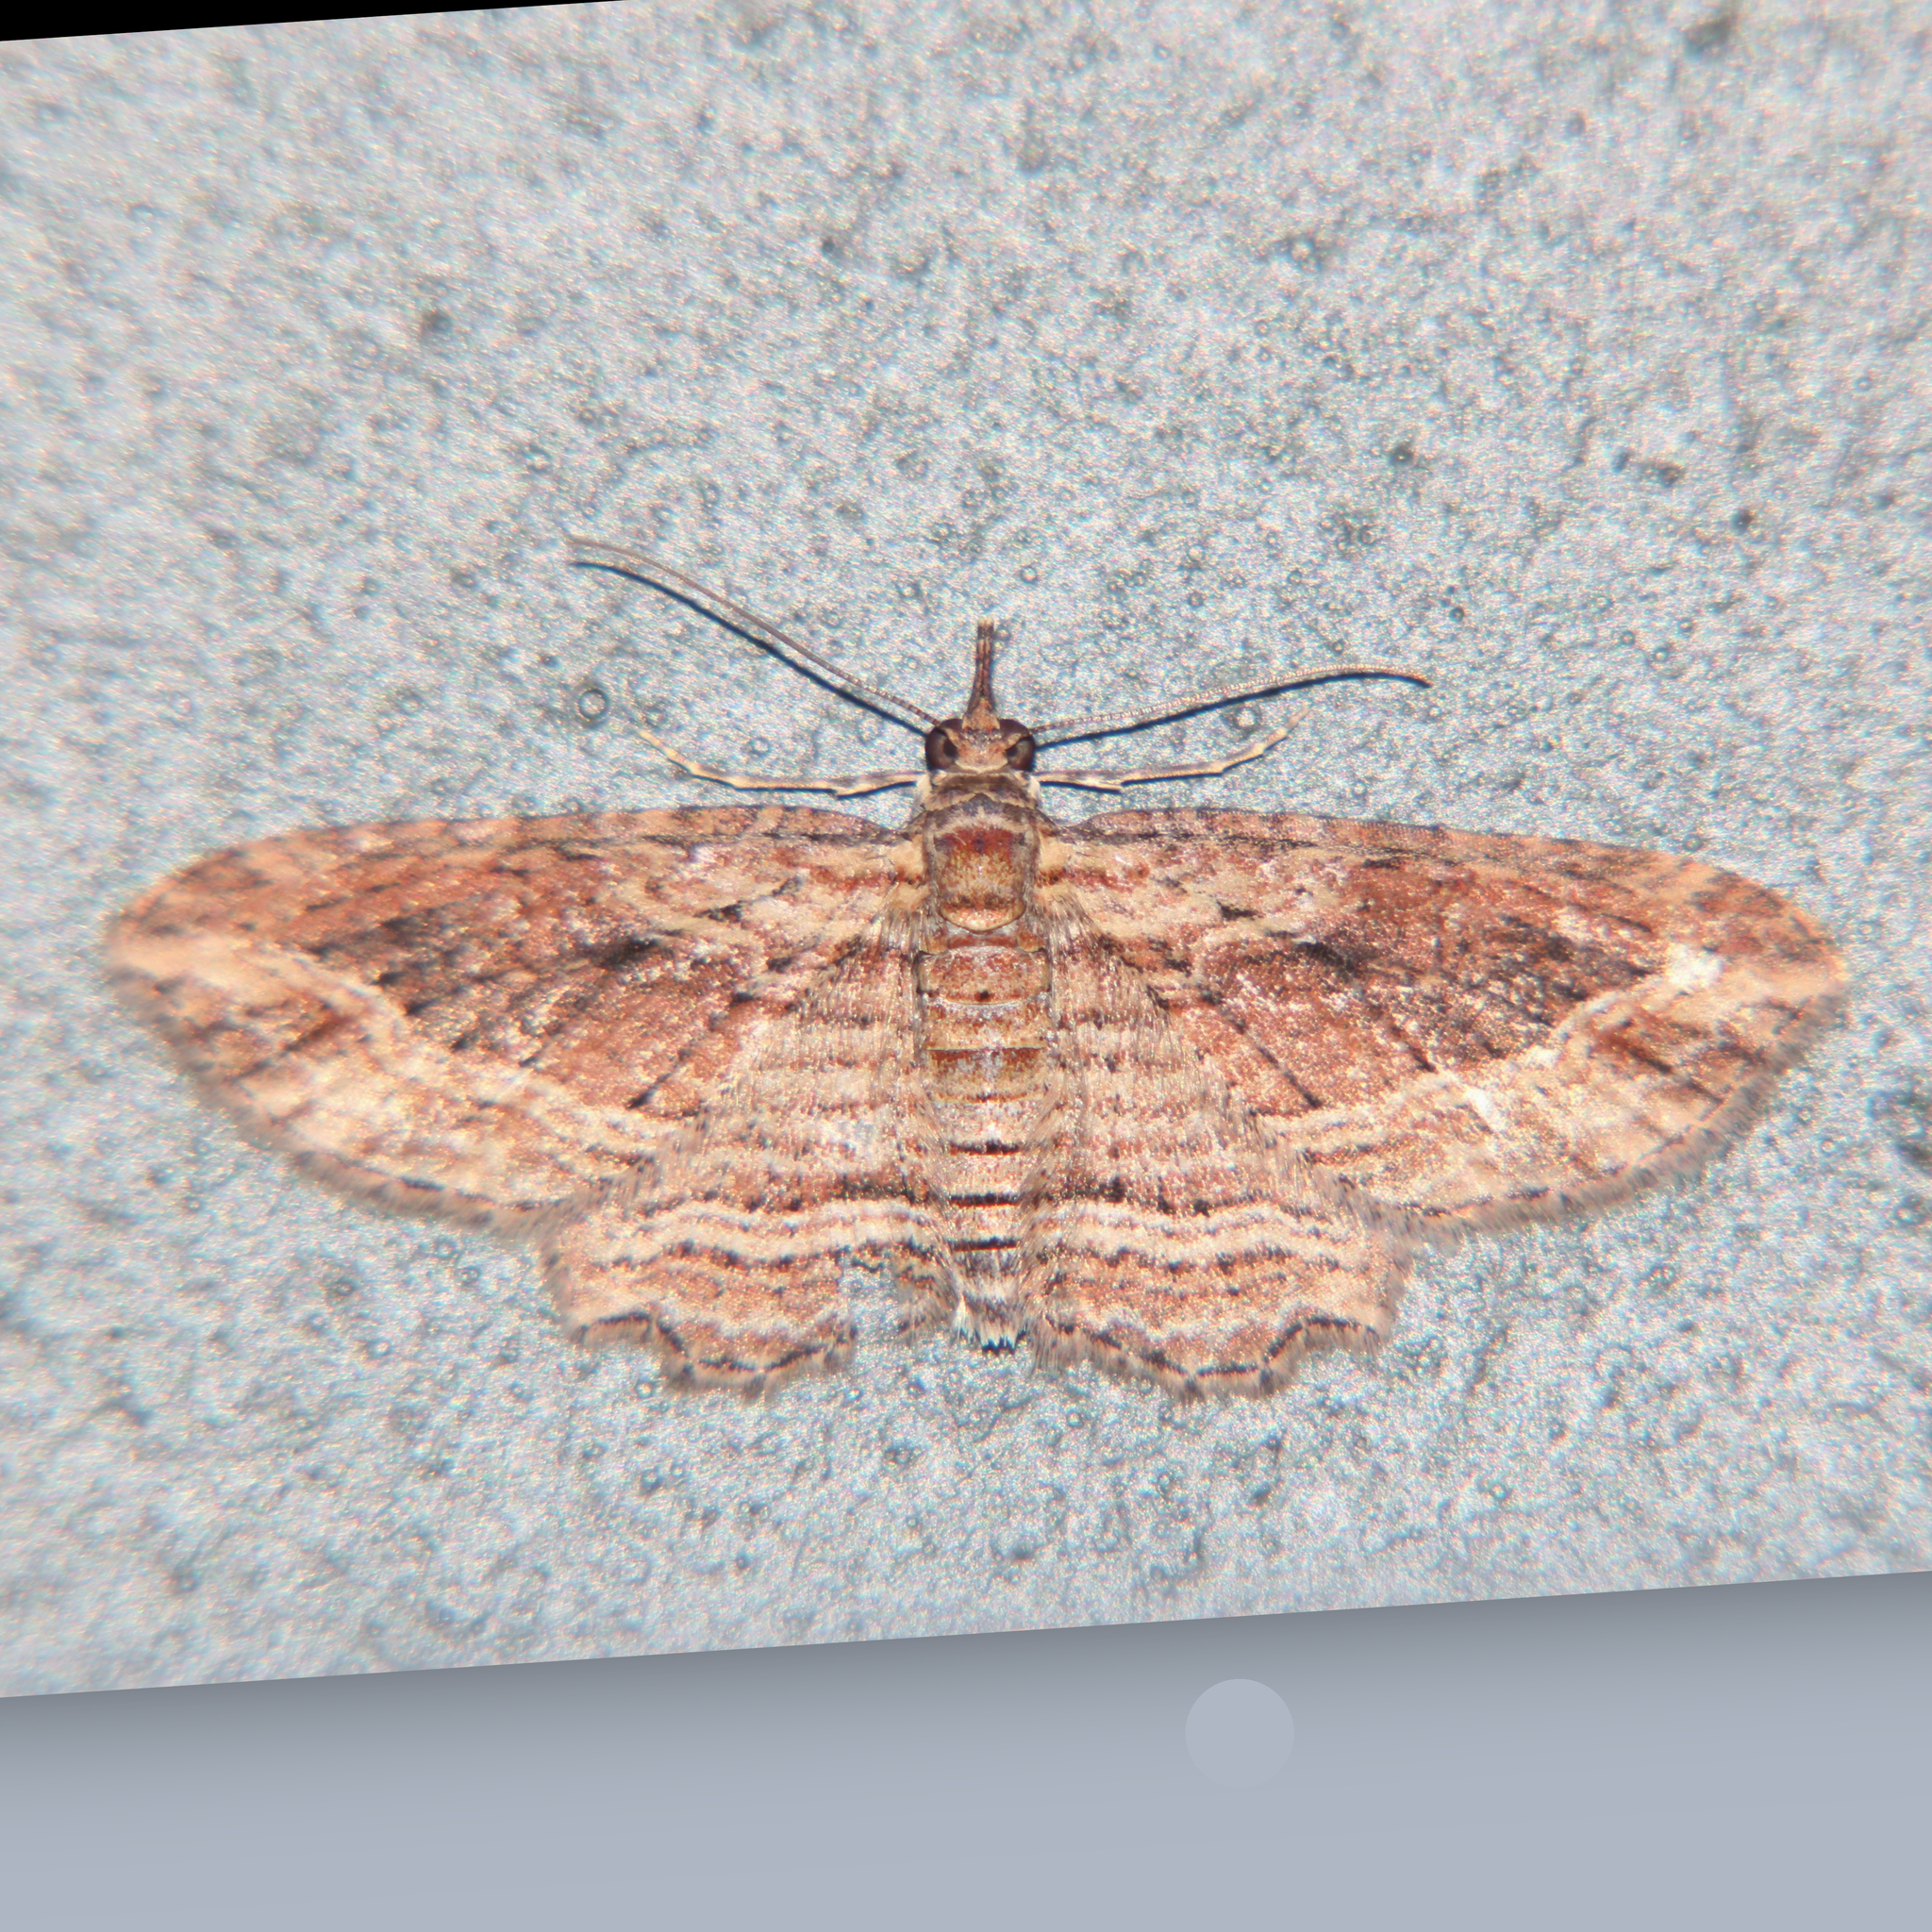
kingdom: Animalia
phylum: Arthropoda
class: Insecta
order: Lepidoptera
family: Geometridae
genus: Chloroclystis
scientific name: Chloroclystis filata
